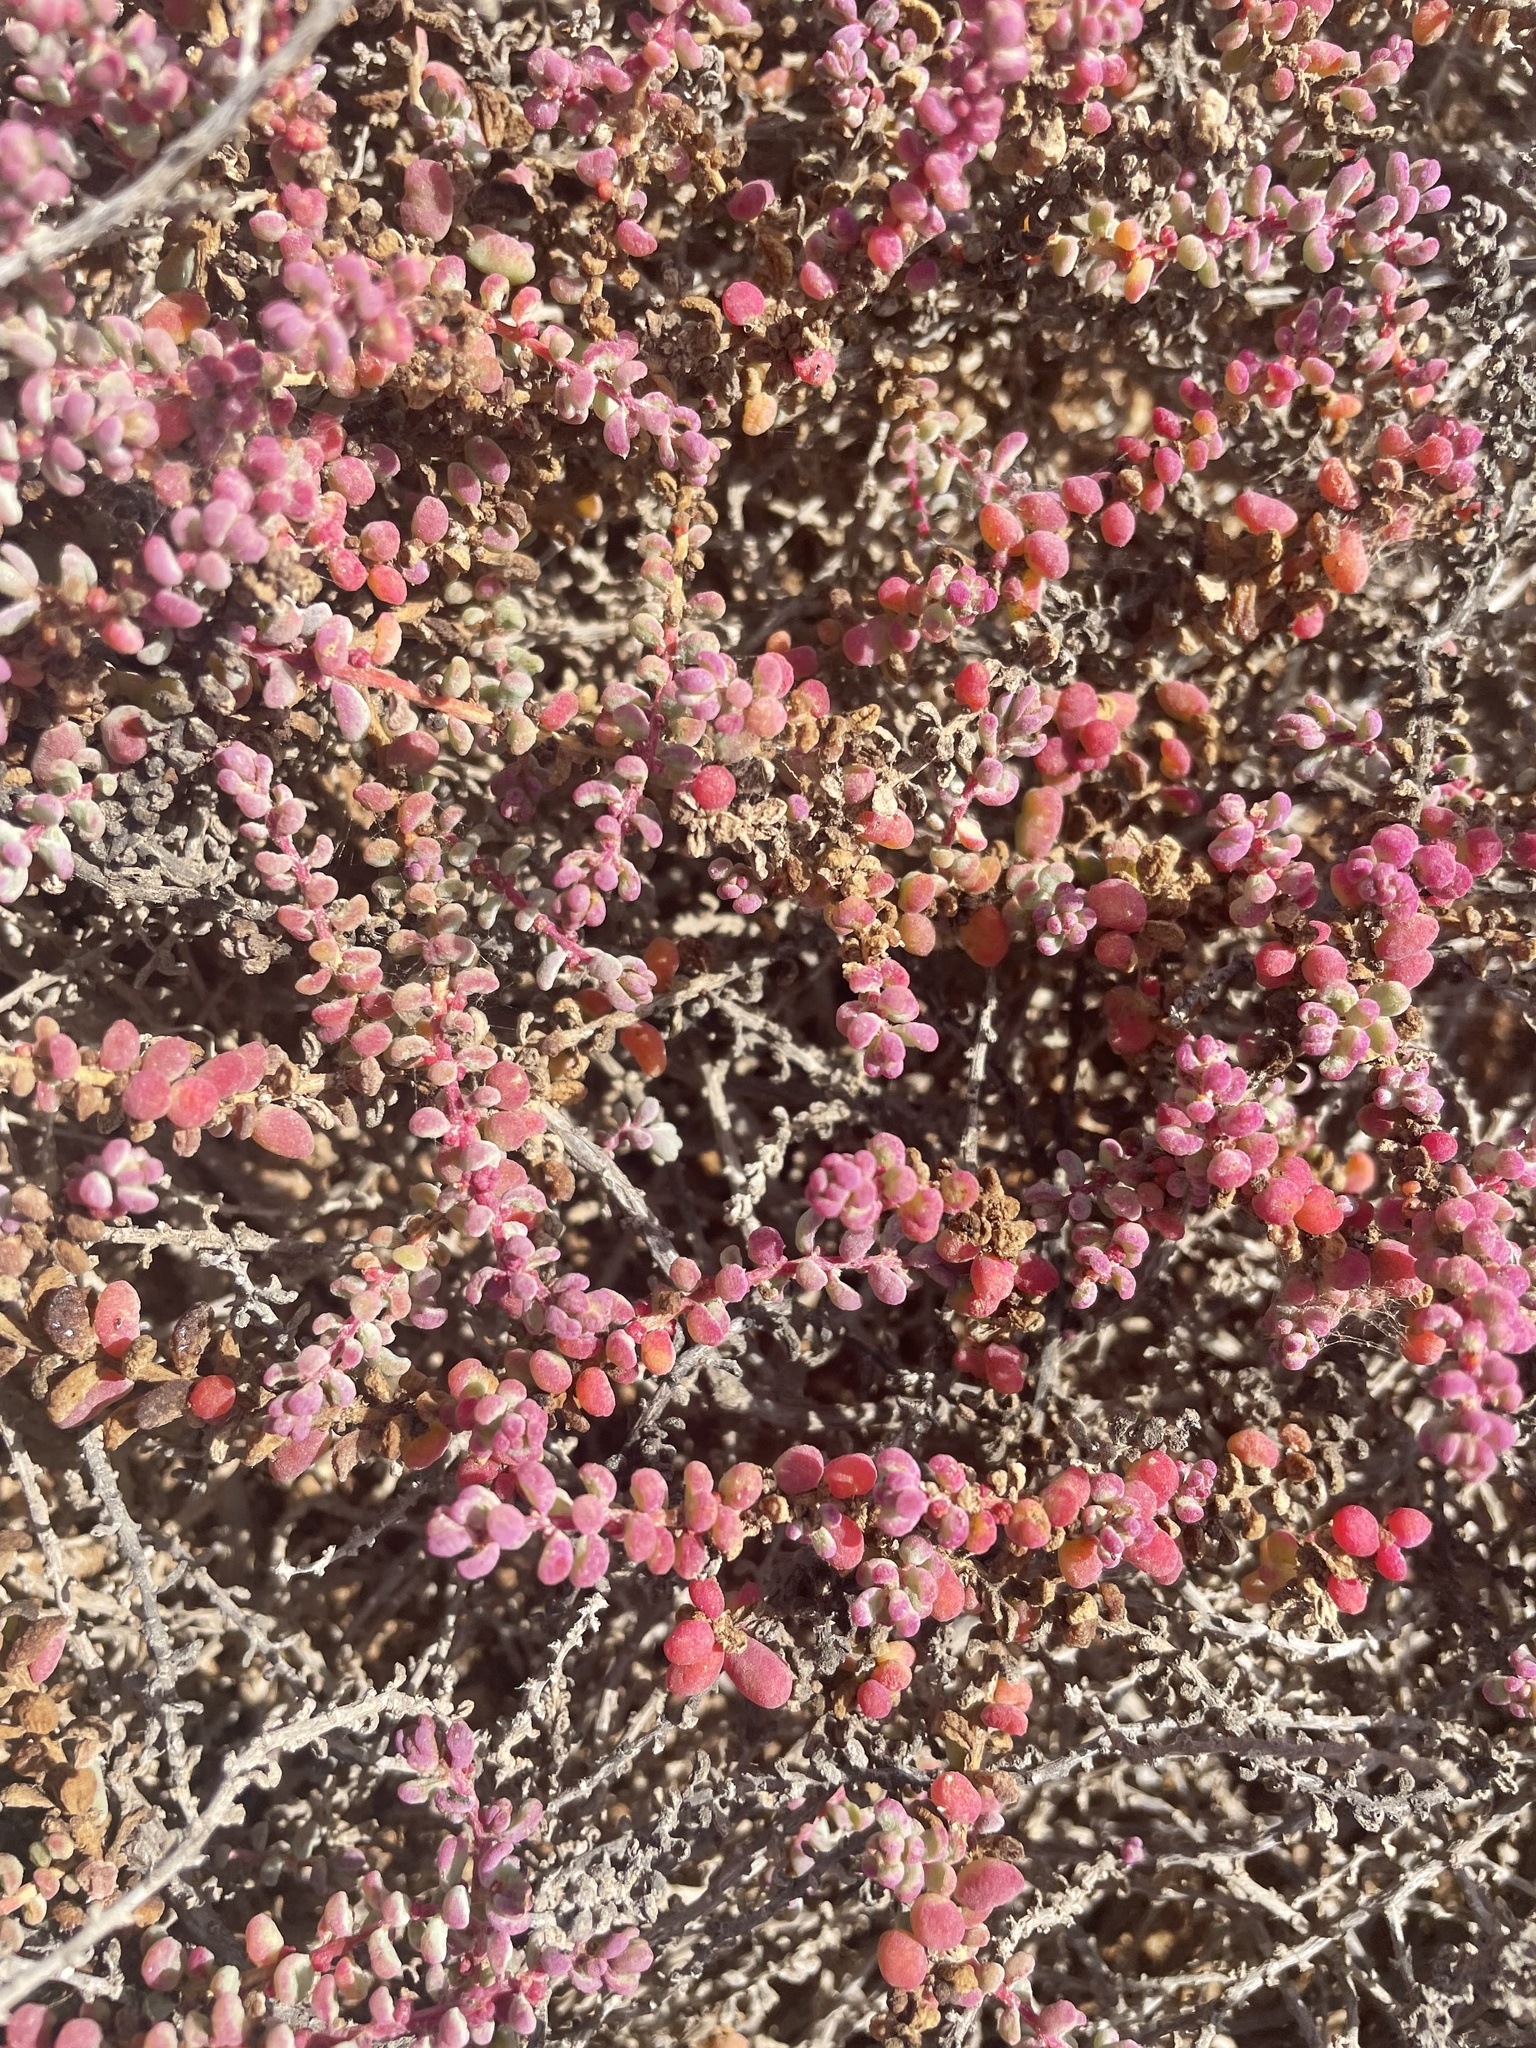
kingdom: Plantae
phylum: Tracheophyta
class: Magnoliopsida
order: Caryophyllales
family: Amaranthaceae
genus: Suaeda
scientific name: Suaeda vermiculata
